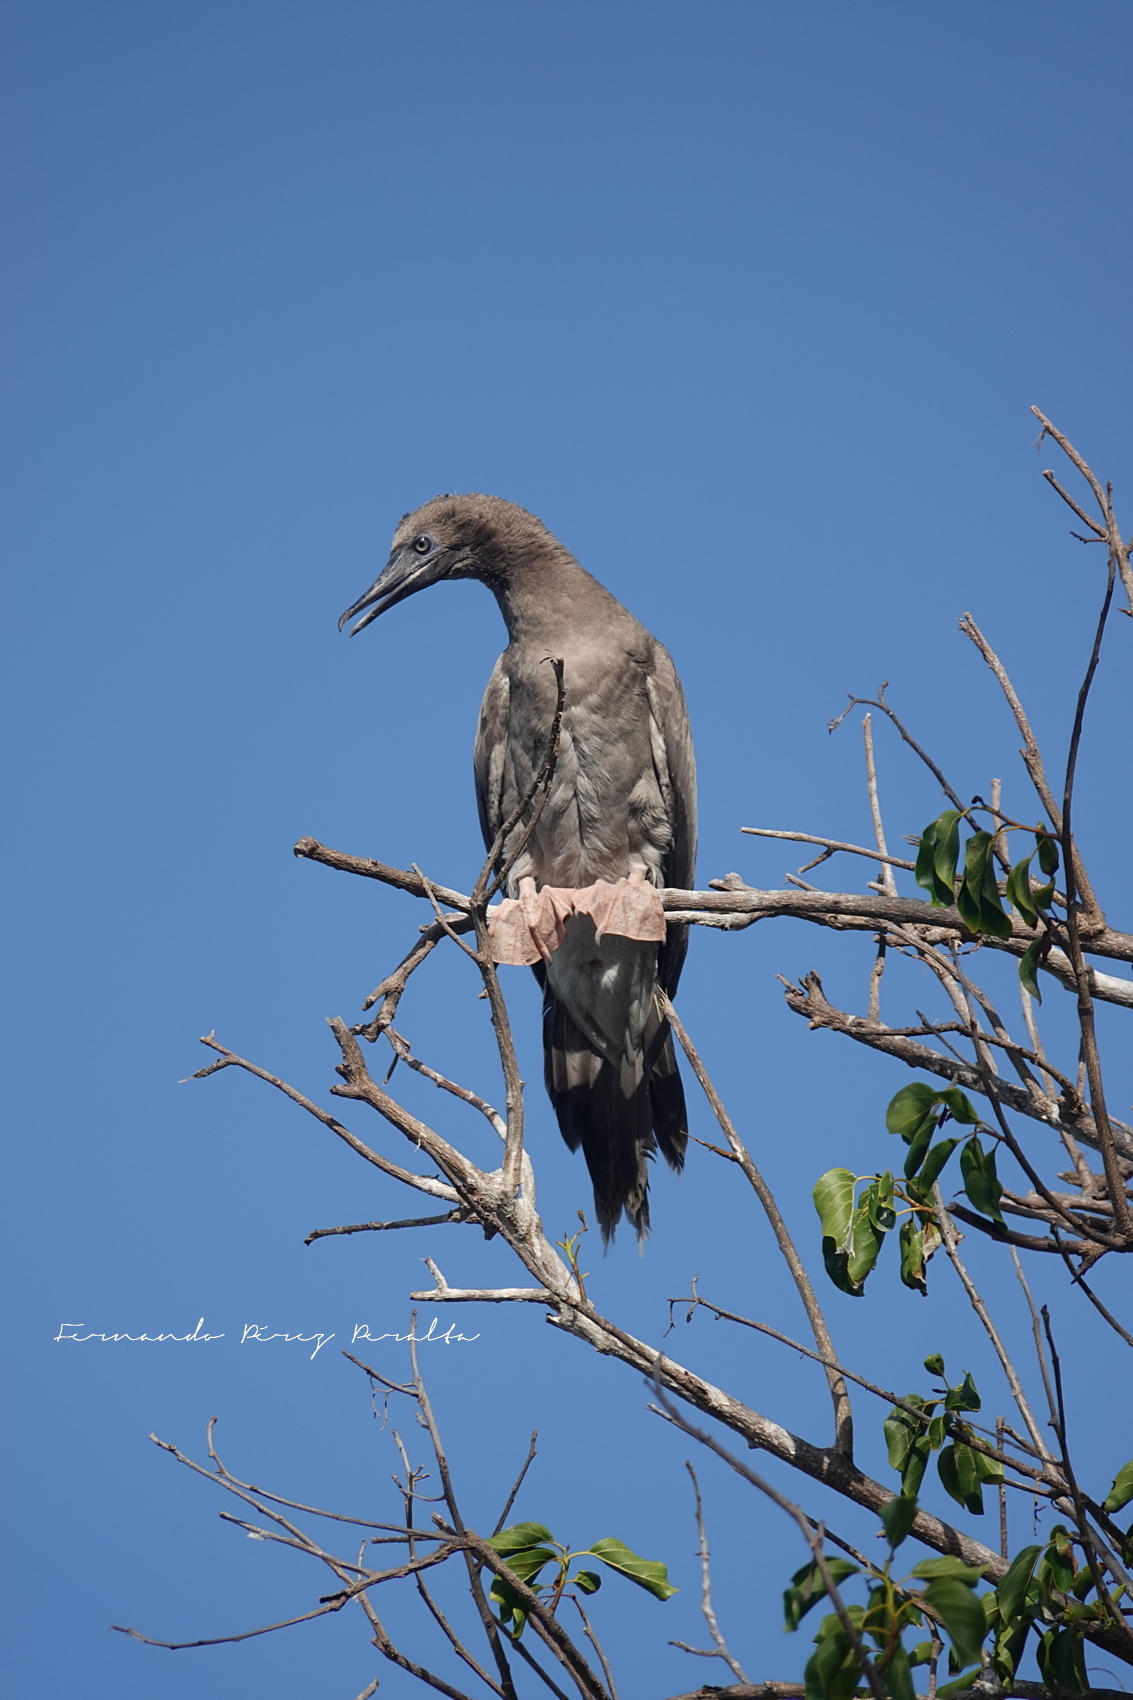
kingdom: Animalia
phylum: Chordata
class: Aves
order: Suliformes
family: Sulidae
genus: Sula
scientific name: Sula sula
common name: Red-footed booby
